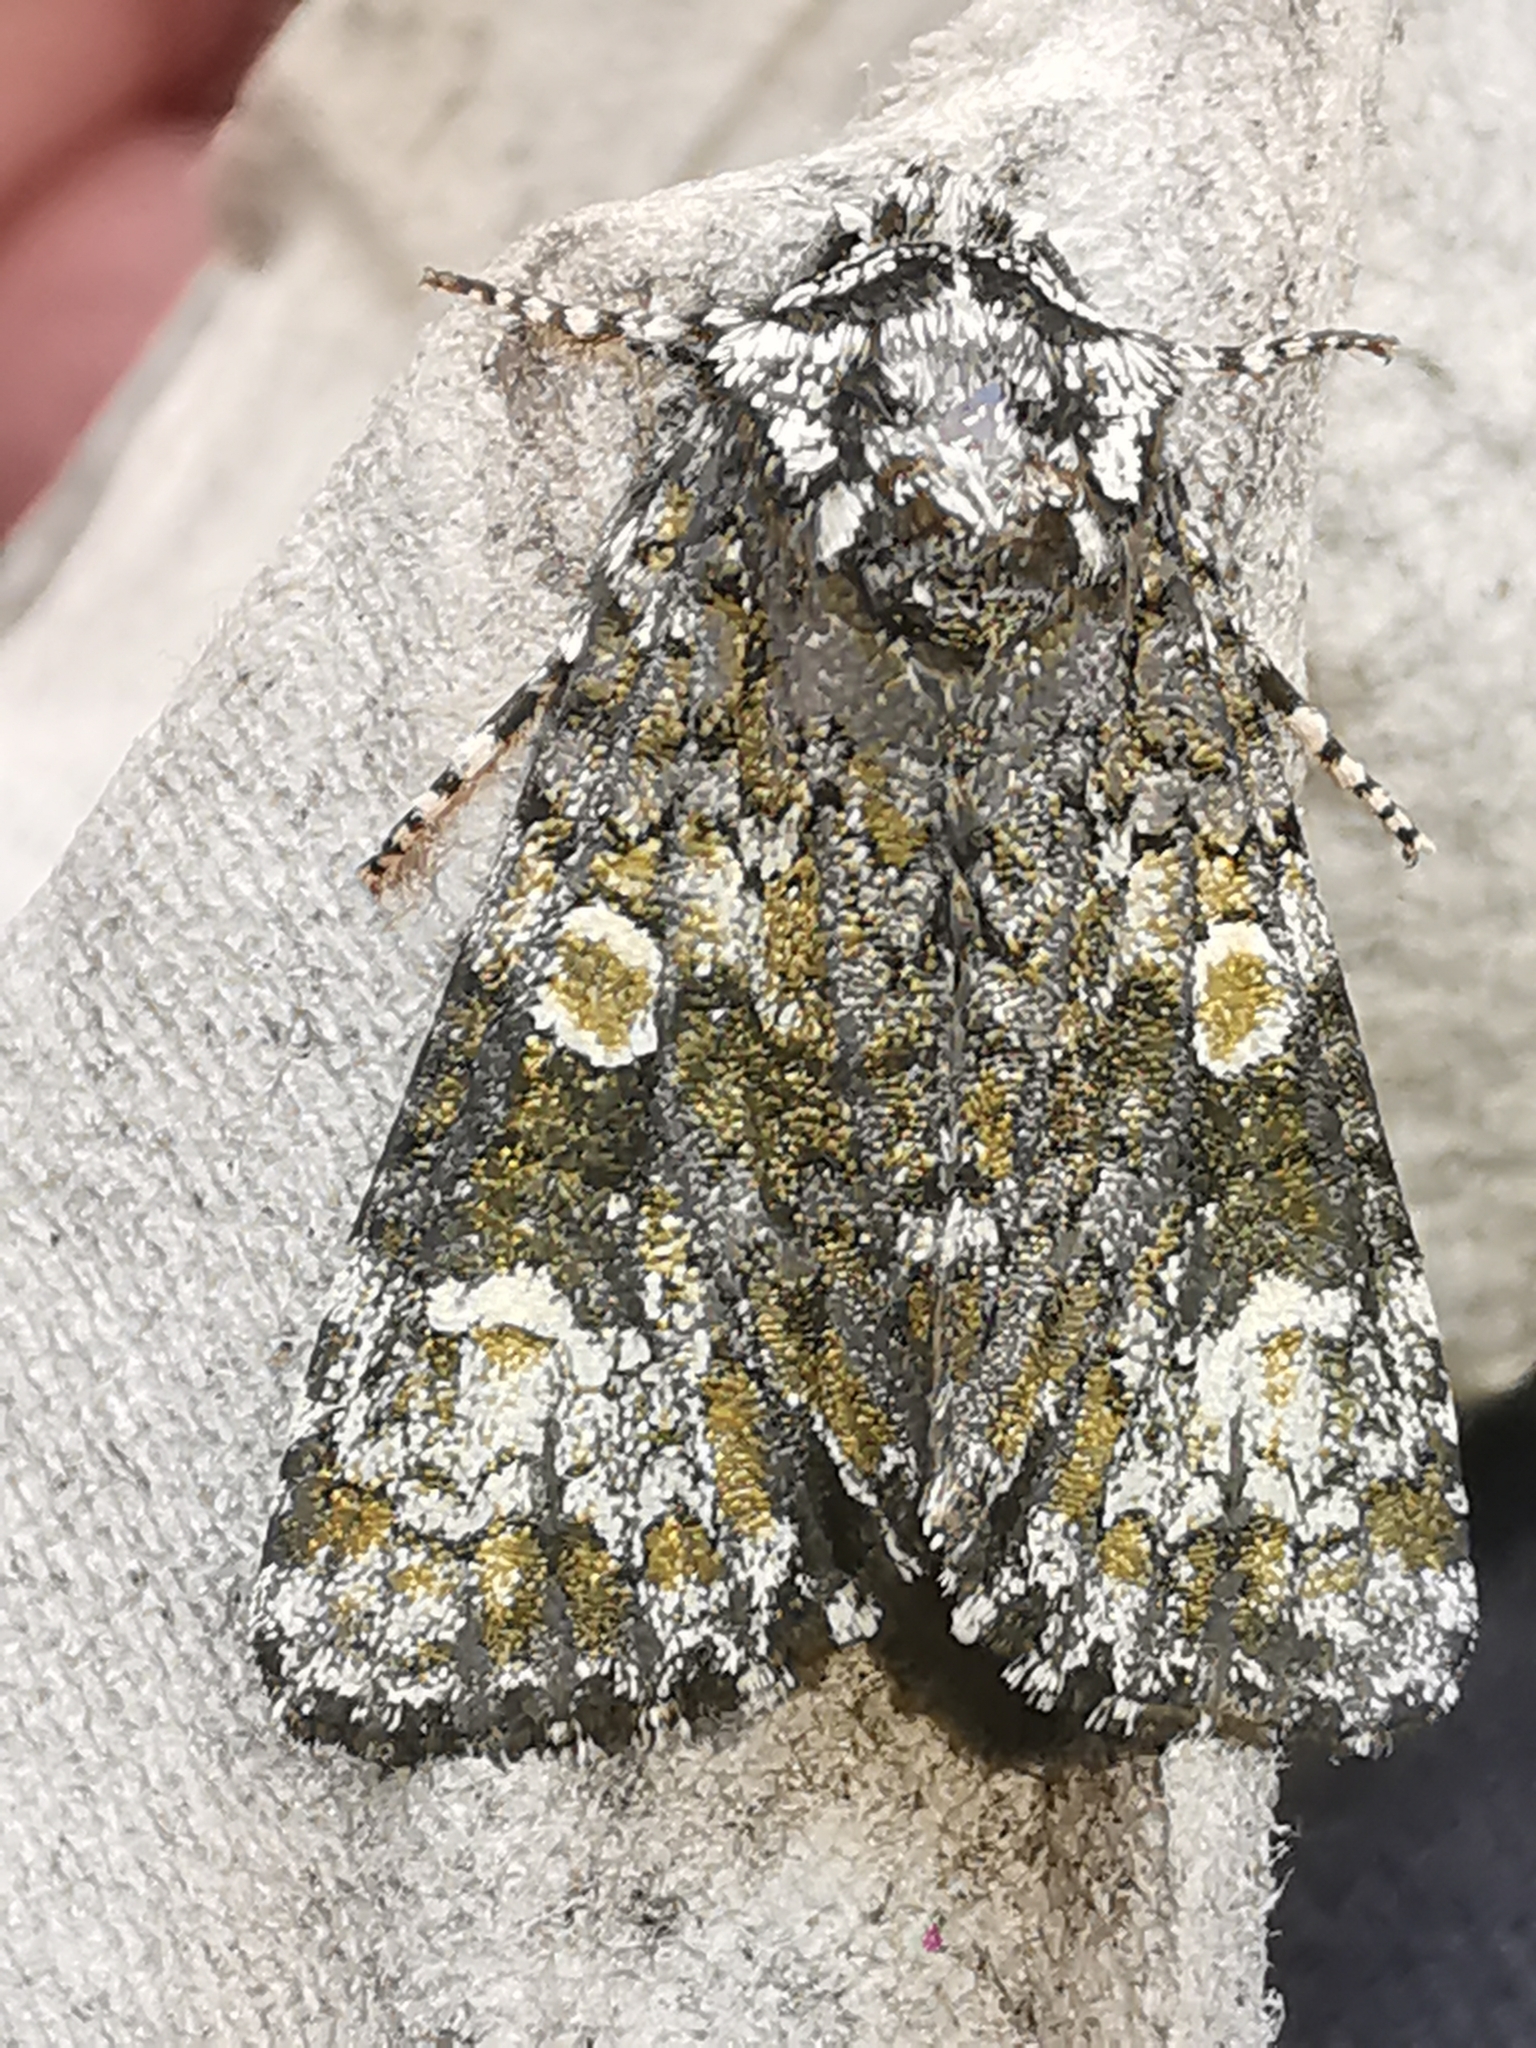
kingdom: Animalia
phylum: Arthropoda
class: Insecta
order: Lepidoptera
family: Noctuidae
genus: Craniophora
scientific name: Craniophora ligustri
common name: Coronet
